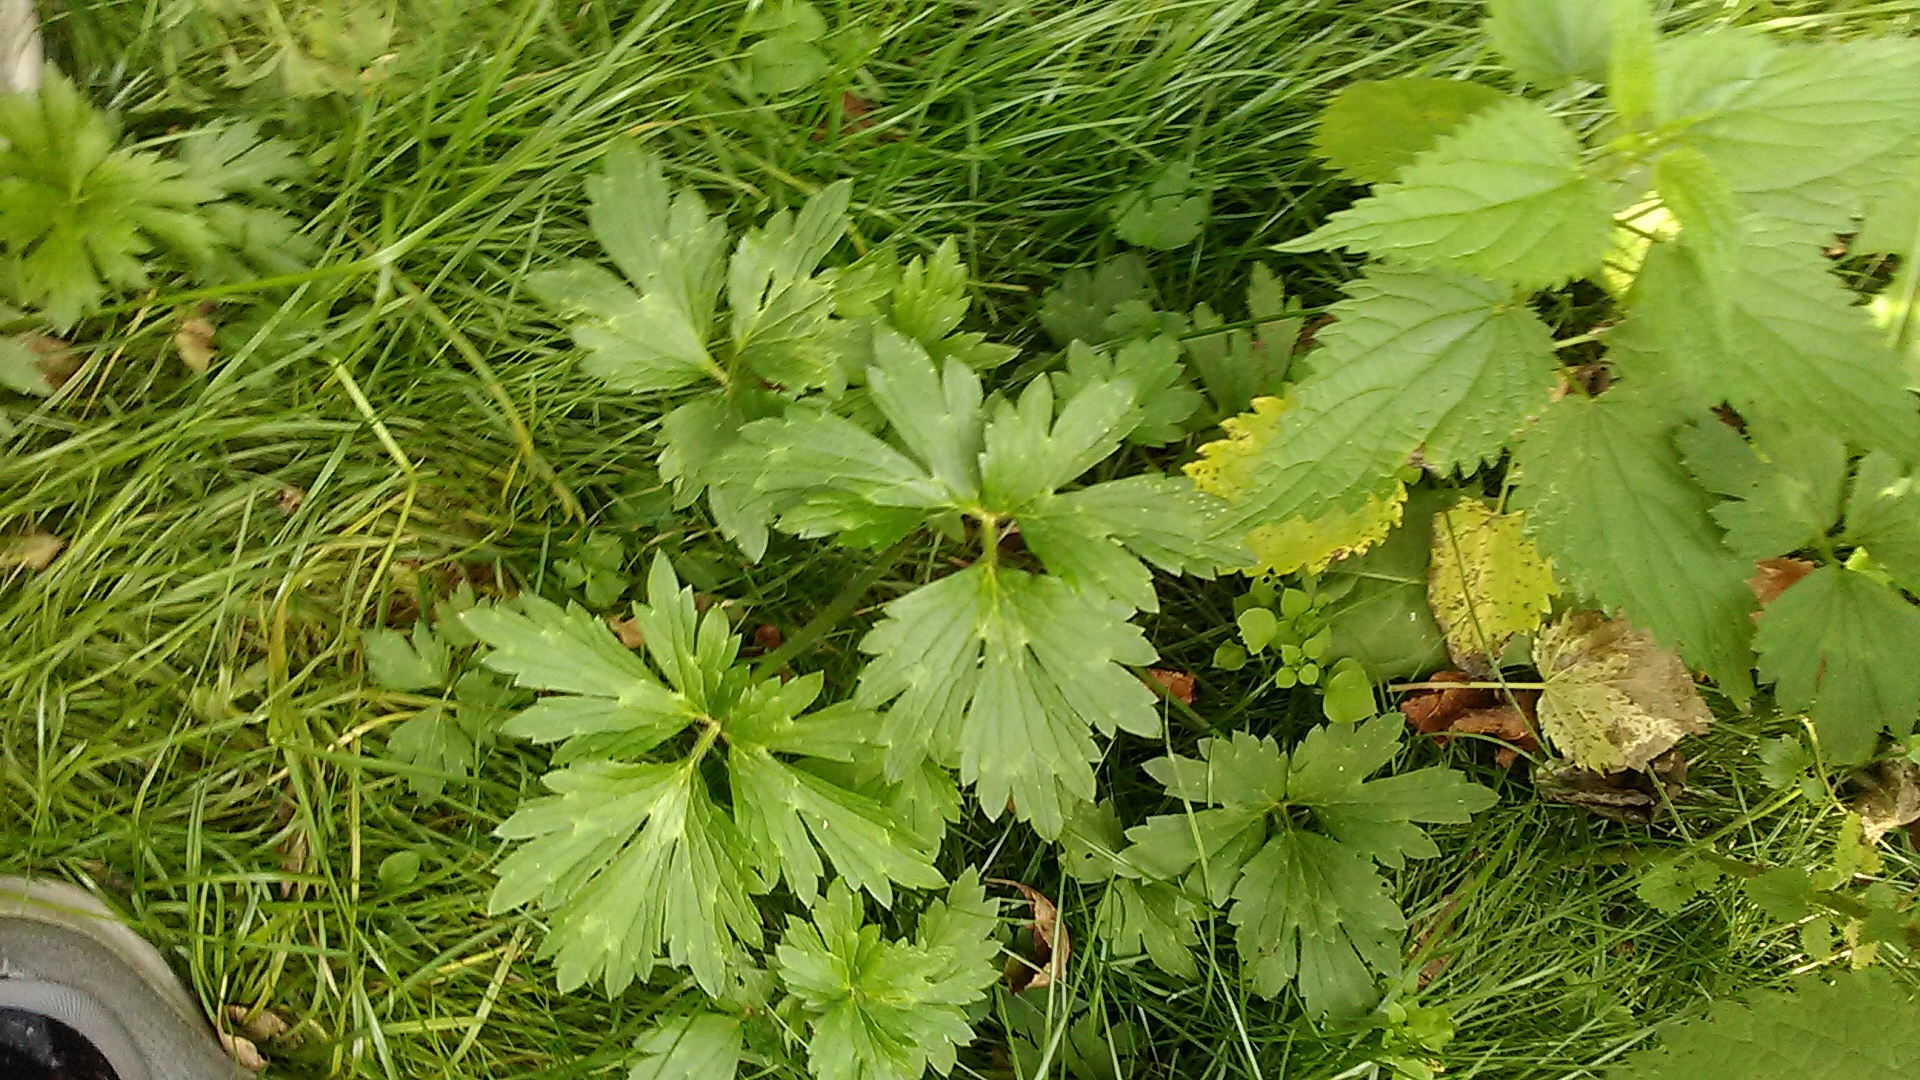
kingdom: Plantae
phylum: Tracheophyta
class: Magnoliopsida
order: Ranunculales
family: Ranunculaceae
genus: Ranunculus
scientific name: Ranunculus repens
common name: Creeping buttercup
